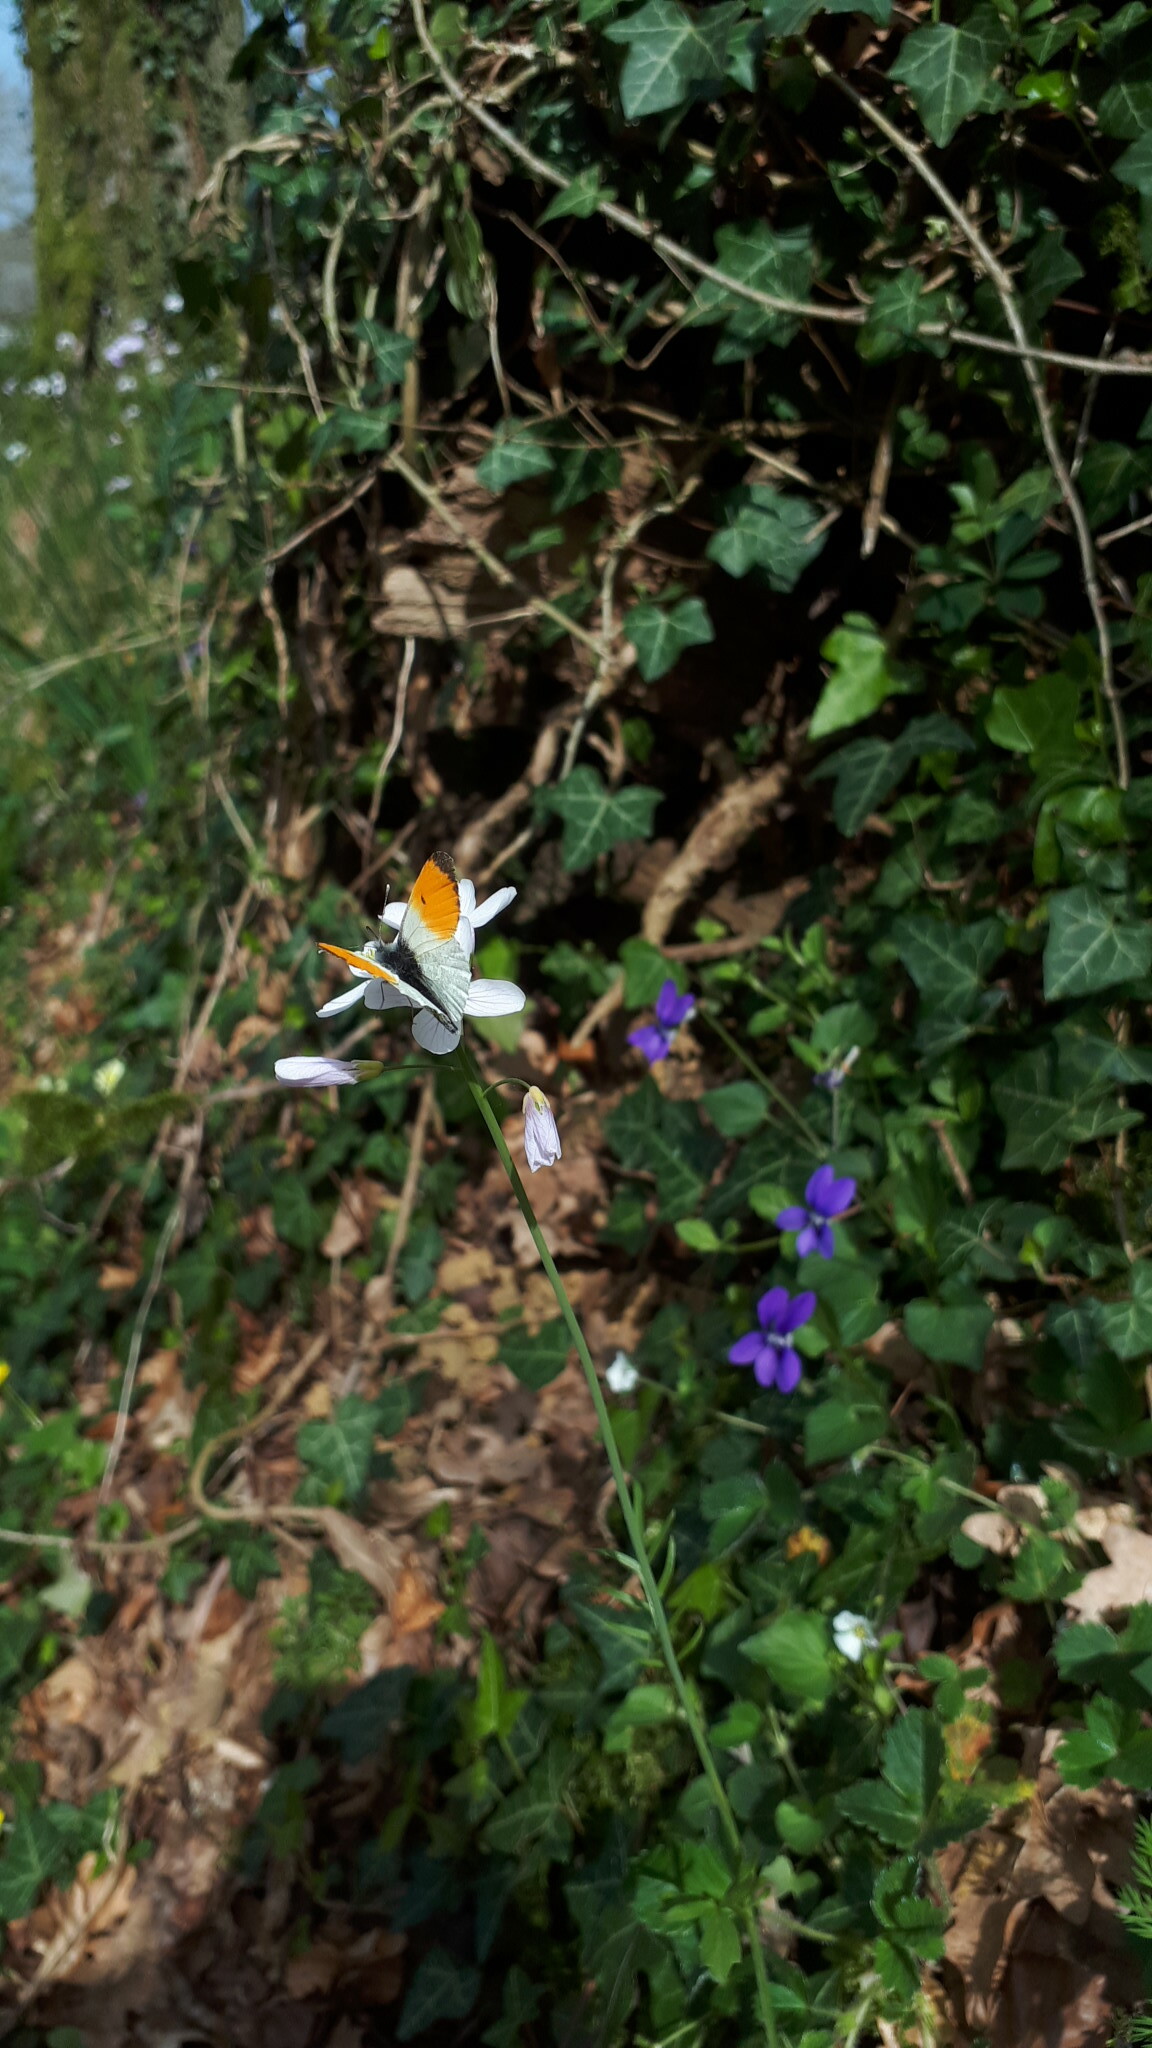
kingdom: Animalia
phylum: Arthropoda
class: Insecta
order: Lepidoptera
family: Pieridae
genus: Anthocharis
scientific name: Anthocharis cardamines
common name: Orange-tip
